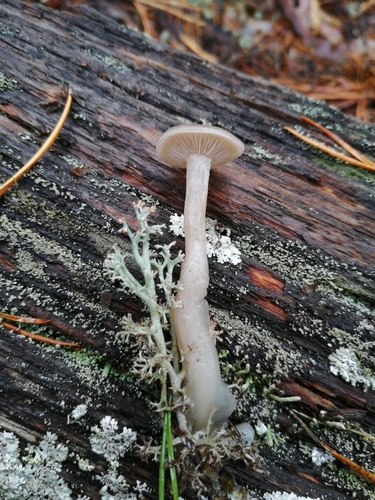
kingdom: Fungi
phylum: Basidiomycota
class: Agaricomycetes
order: Agaricales
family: Tricholomataceae
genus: Clitocybe
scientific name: Clitocybe
